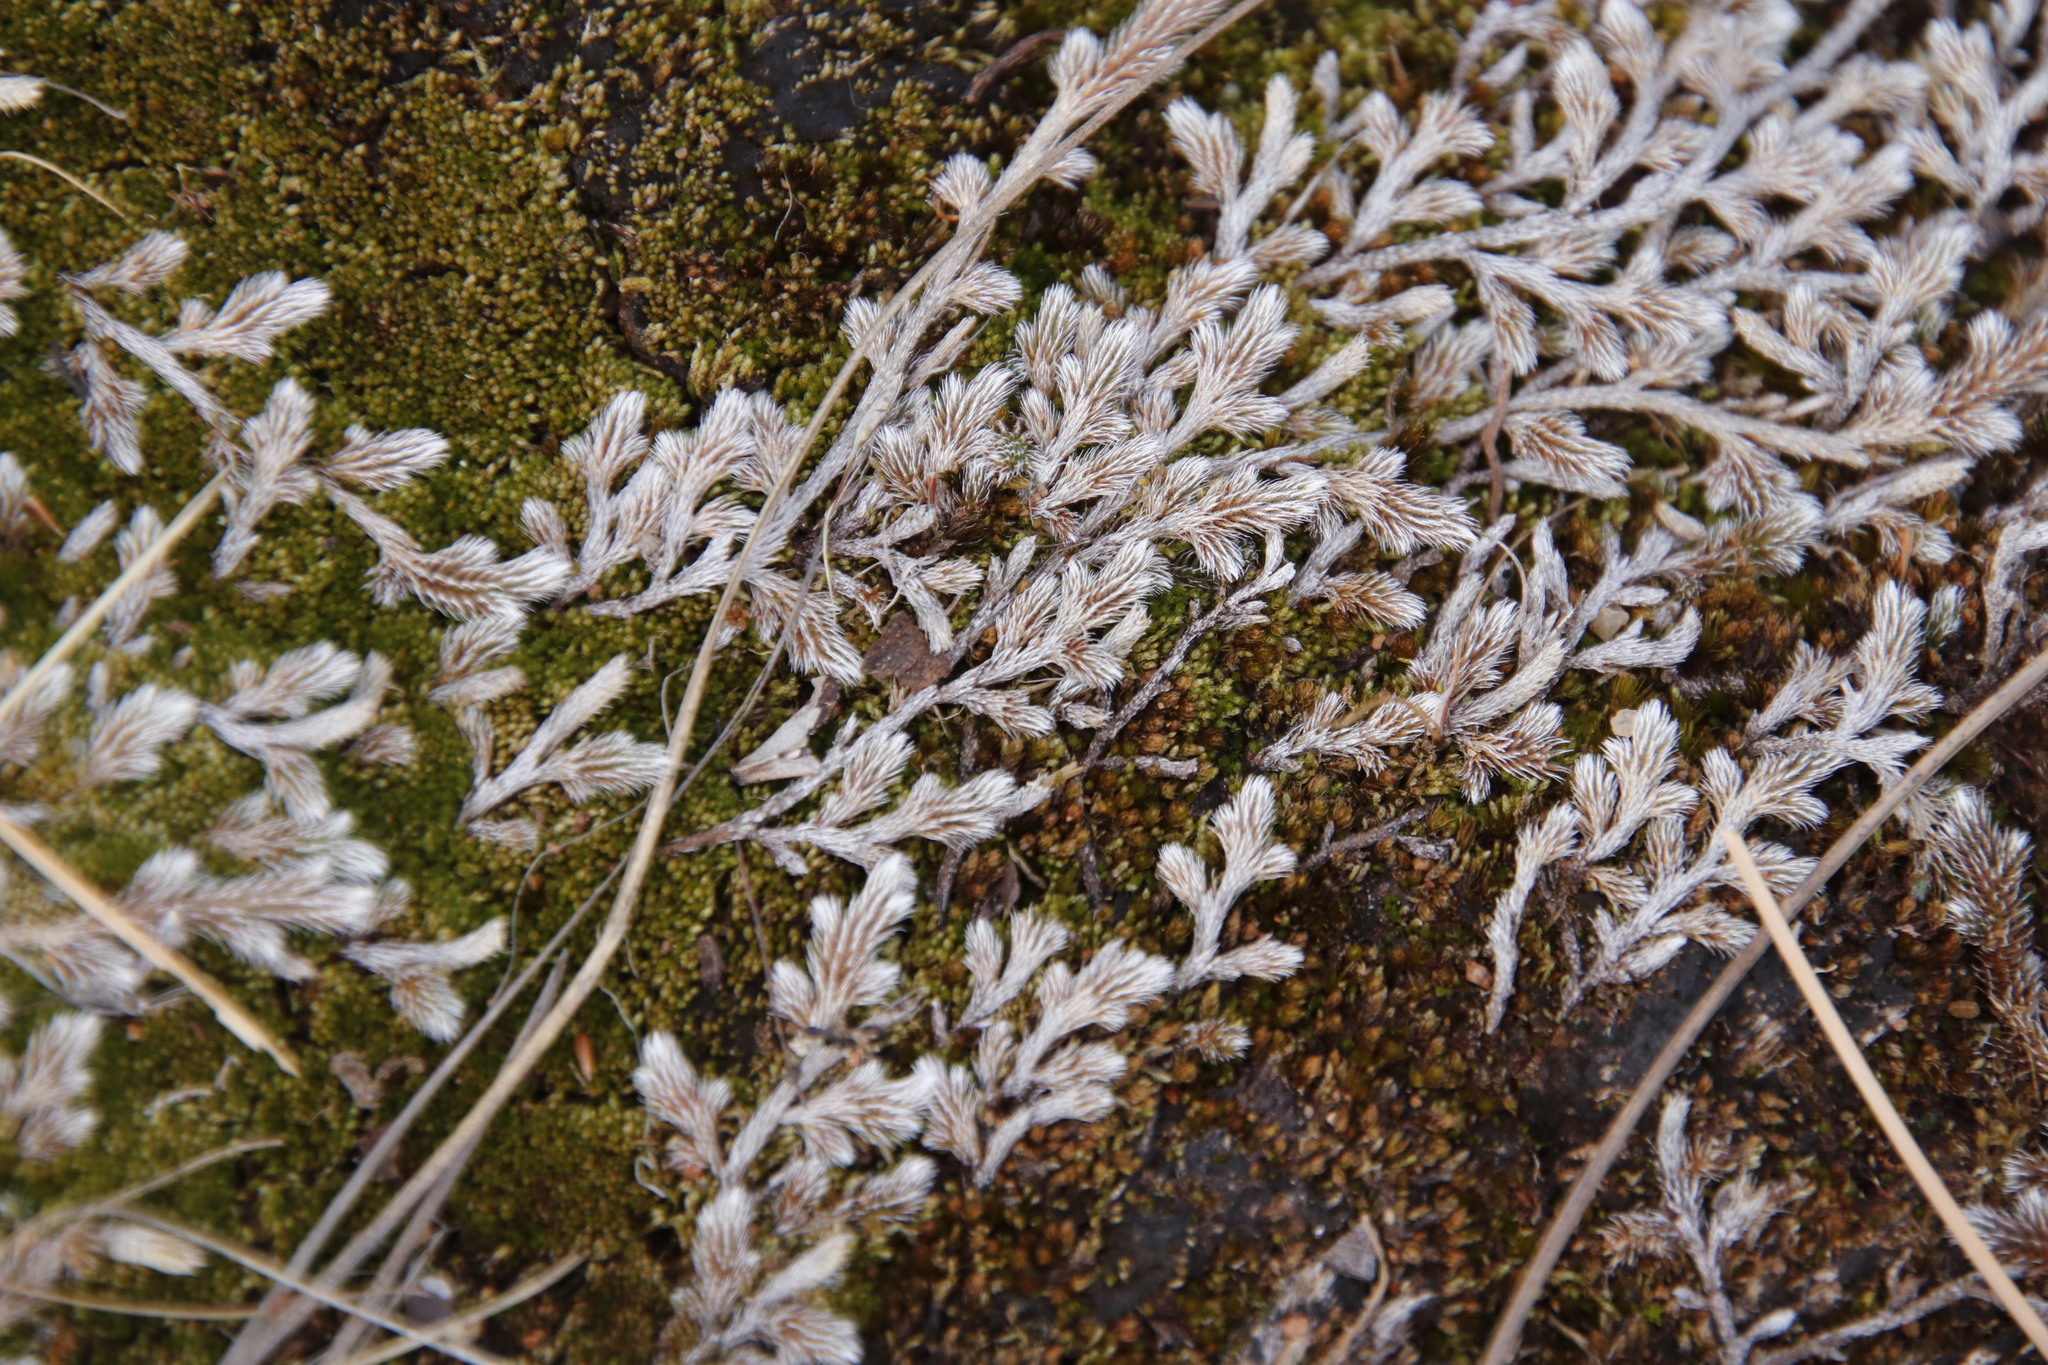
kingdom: Plantae
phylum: Tracheophyta
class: Lycopodiopsida
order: Selaginellales
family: Selaginellaceae
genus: Selaginella
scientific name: Selaginella dregei
